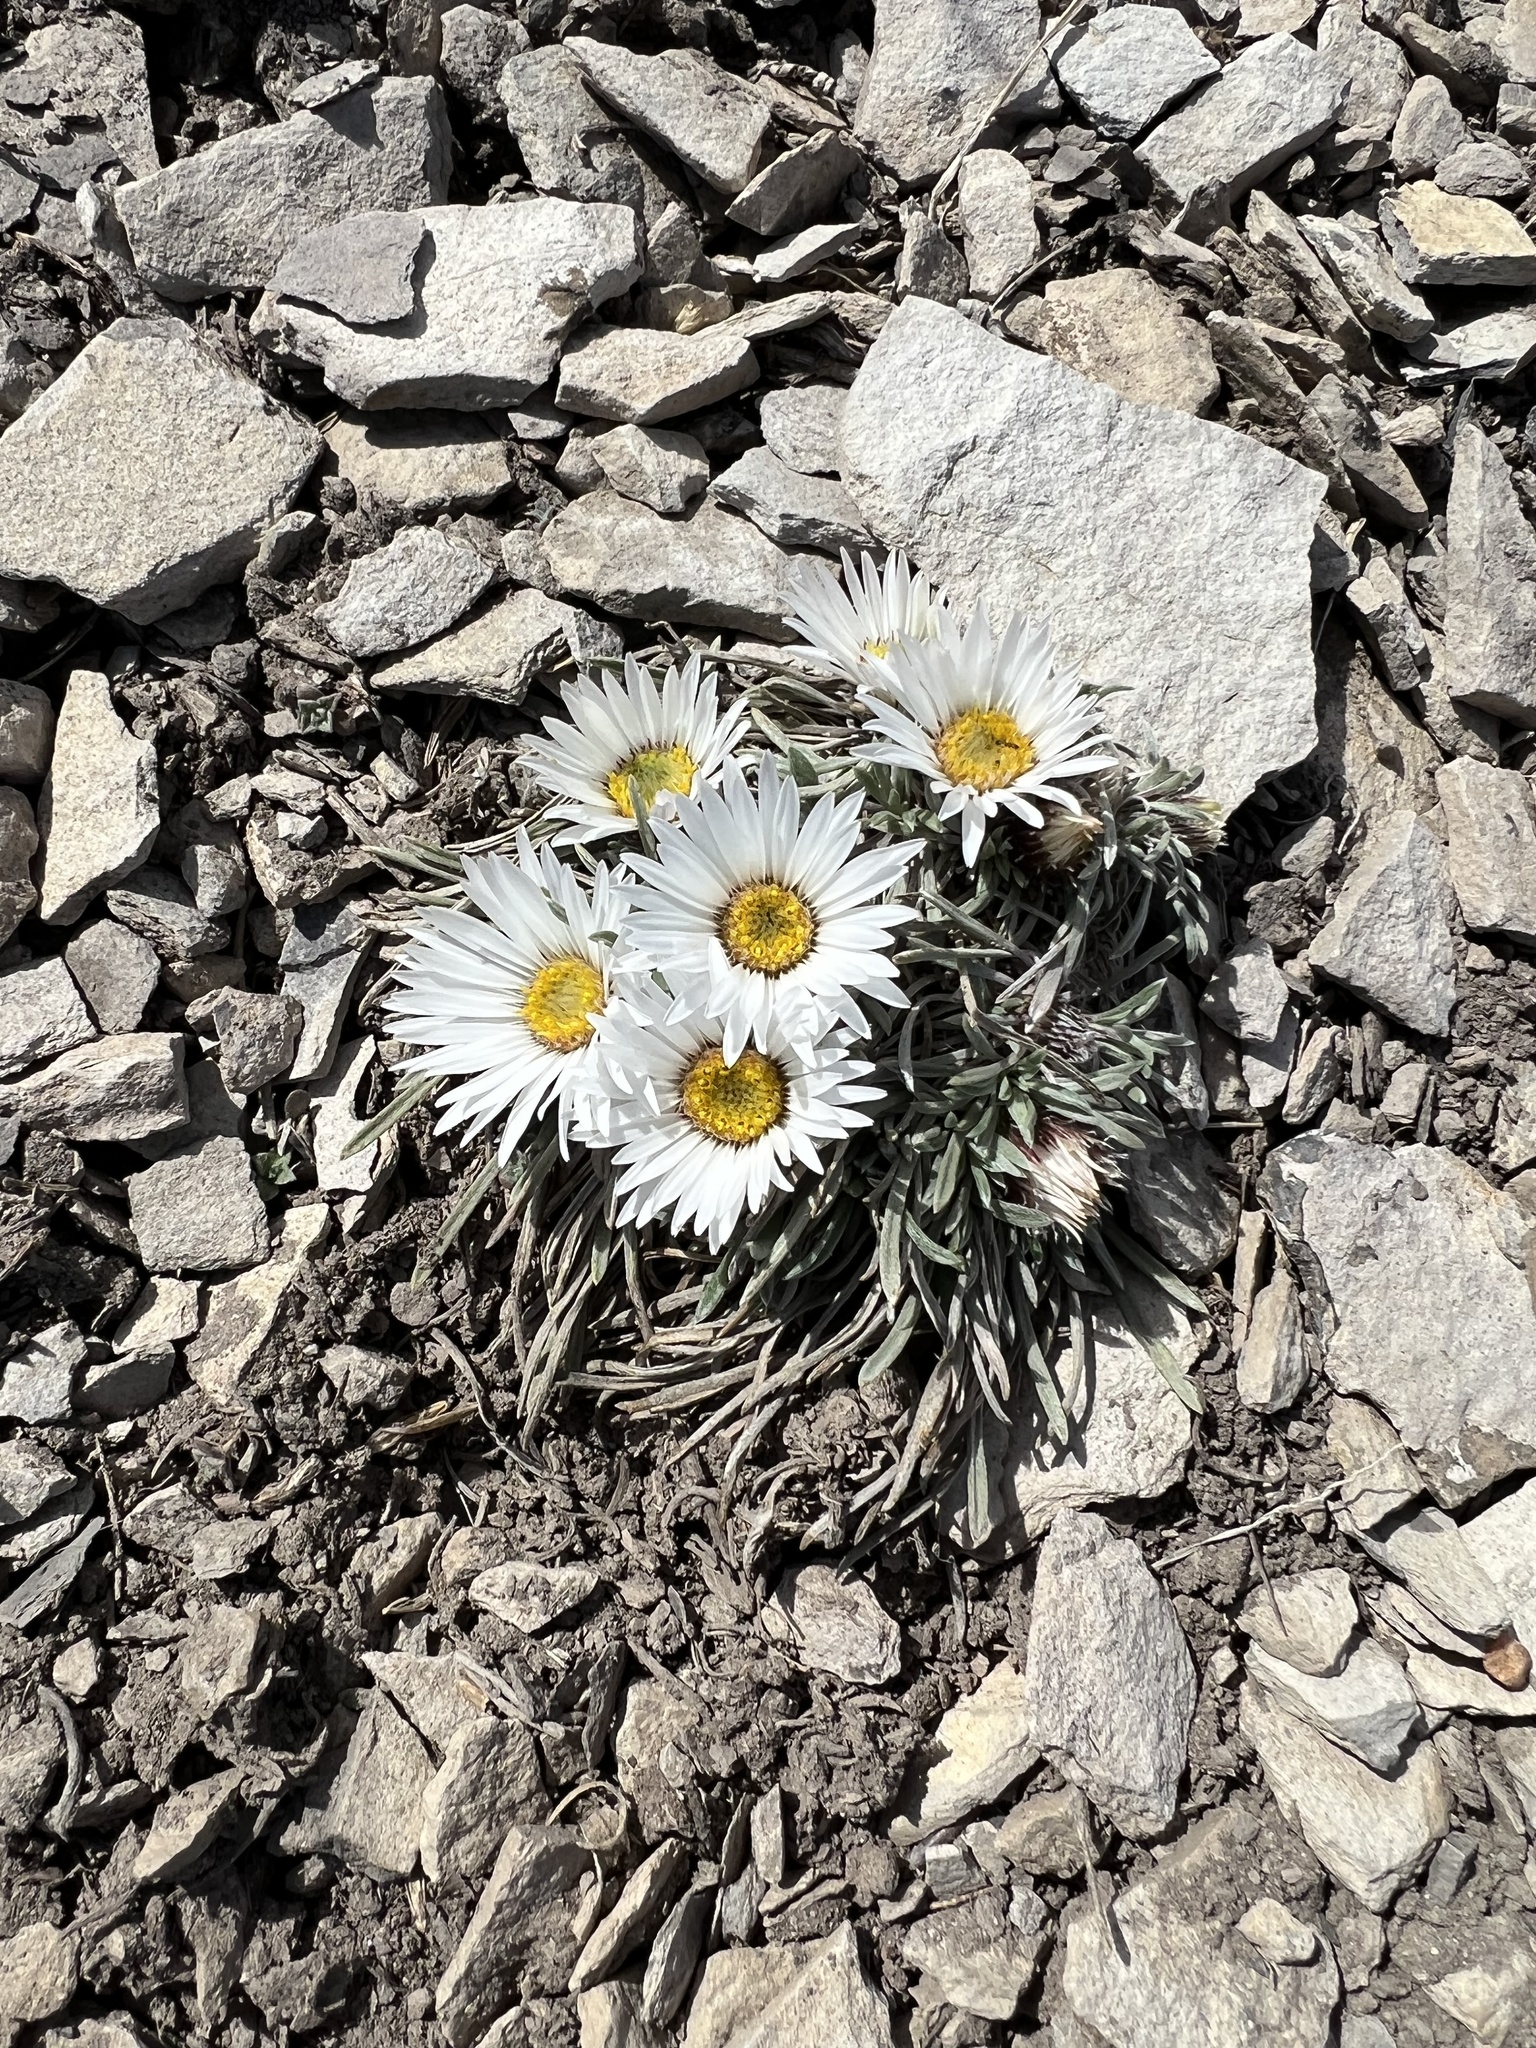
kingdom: Plantae
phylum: Tracheophyta
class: Magnoliopsida
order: Asterales
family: Asteraceae
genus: Townsendia
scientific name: Townsendia hookeri
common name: Hooker's townsend daisy
